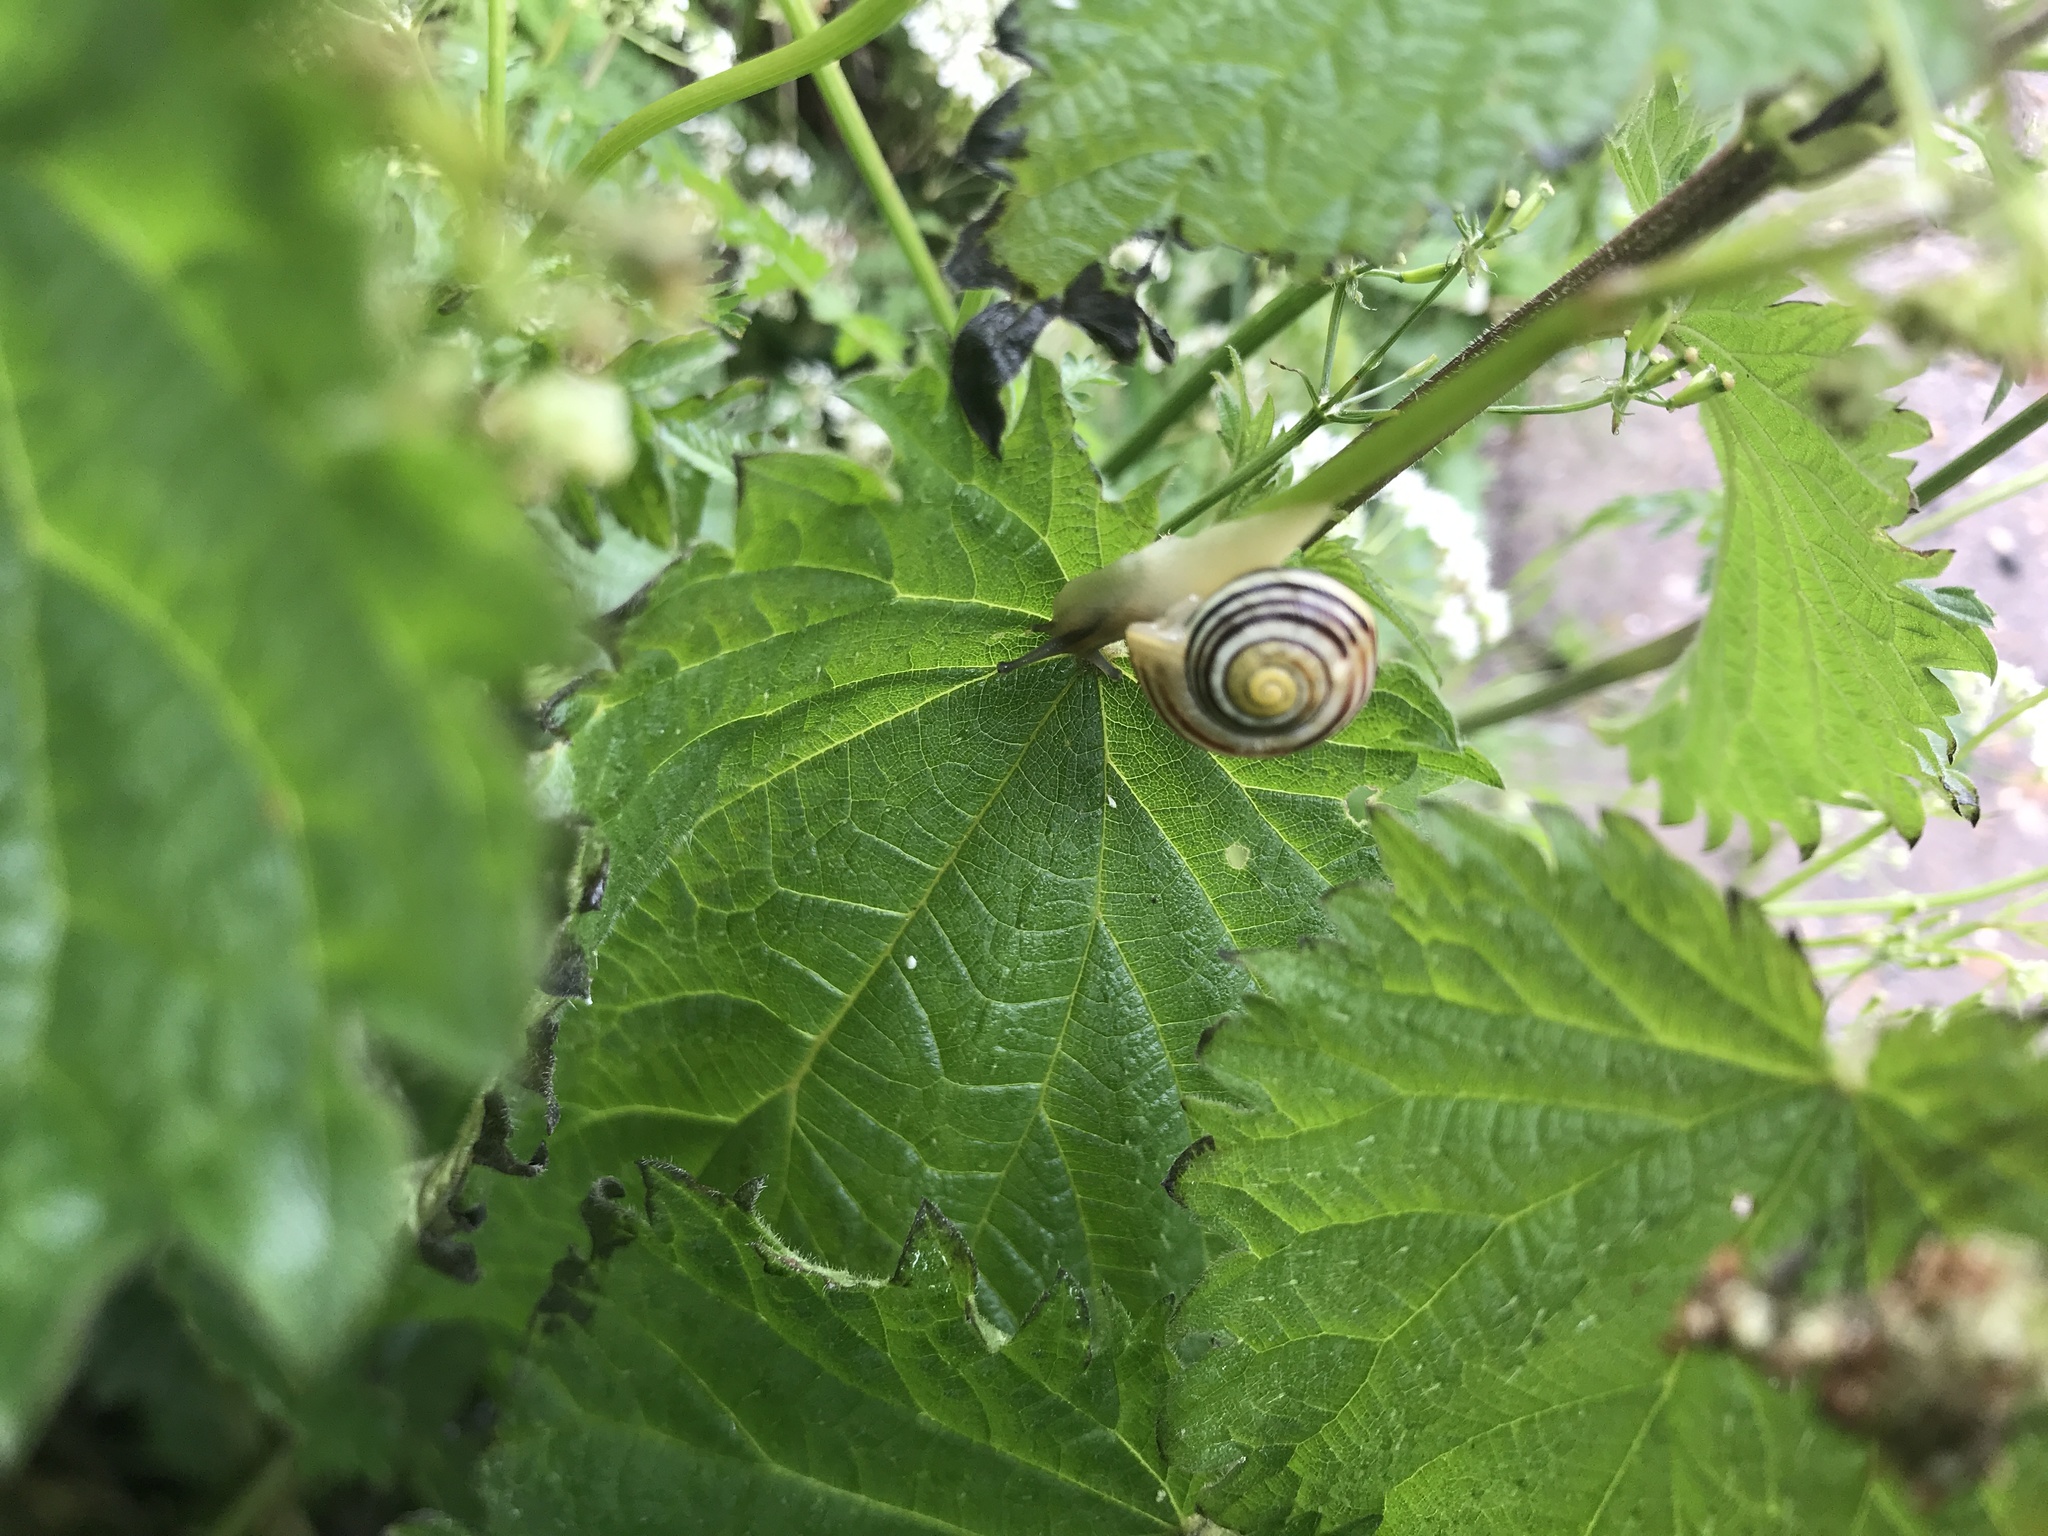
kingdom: Animalia
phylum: Mollusca
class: Gastropoda
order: Stylommatophora
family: Helicidae
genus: Cepaea
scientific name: Cepaea
